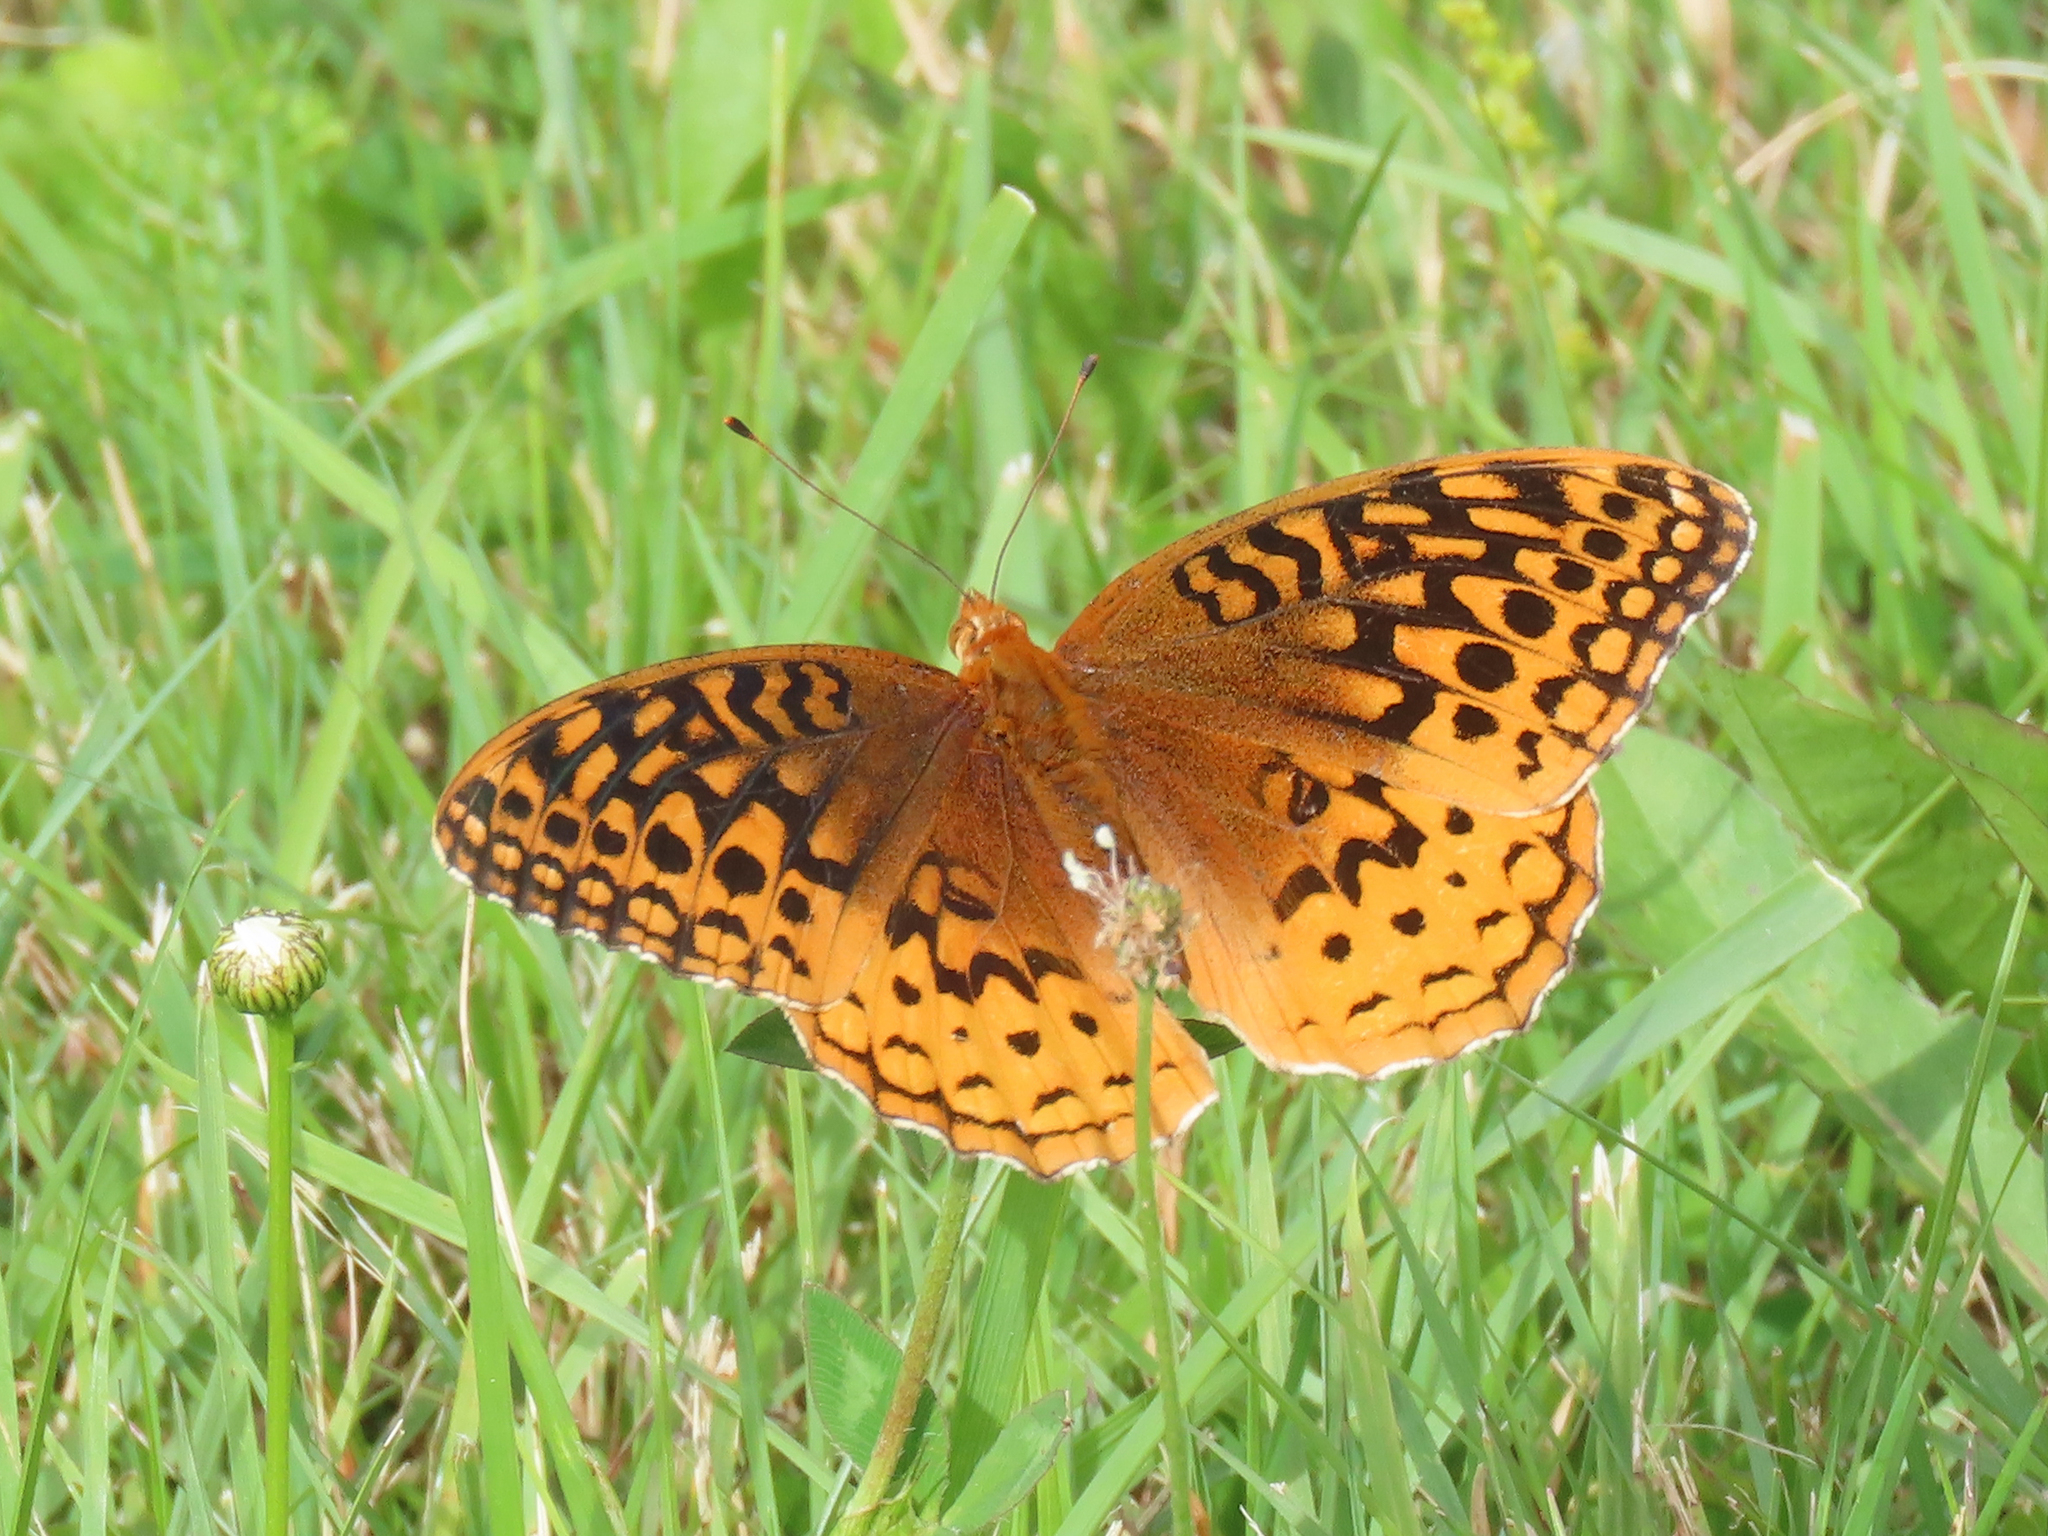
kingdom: Animalia
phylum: Arthropoda
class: Insecta
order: Lepidoptera
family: Nymphalidae
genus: Speyeria
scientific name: Speyeria cybele
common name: Great spangled fritillary
